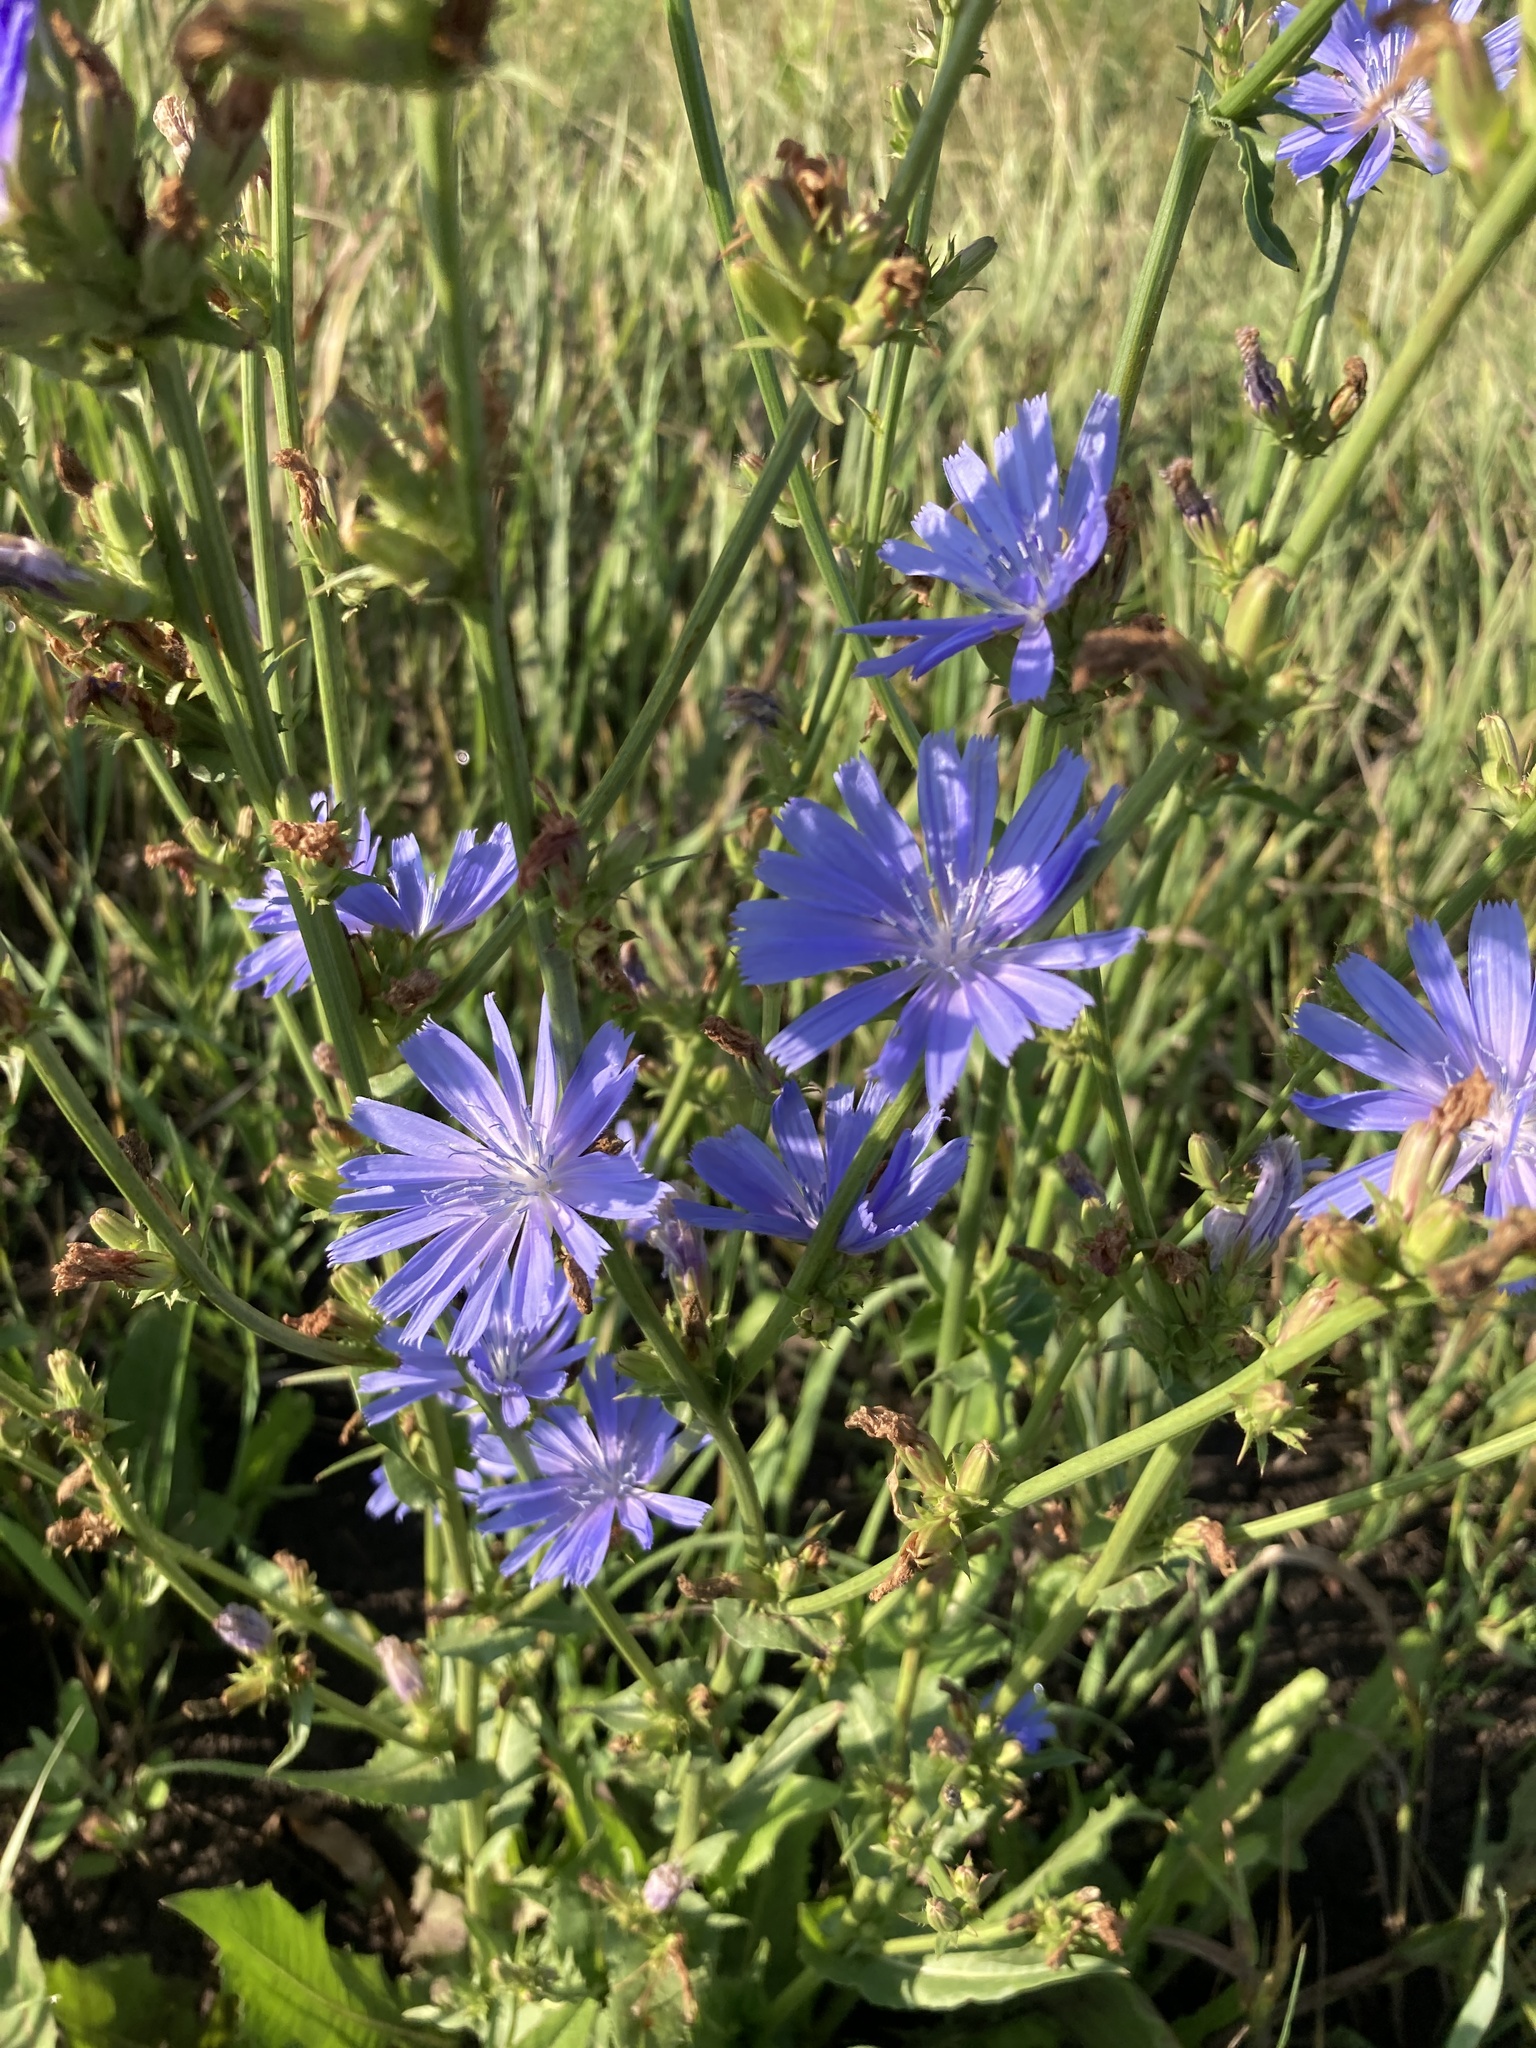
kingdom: Plantae
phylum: Tracheophyta
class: Magnoliopsida
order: Asterales
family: Asteraceae
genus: Cichorium
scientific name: Cichorium intybus
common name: Chicory
